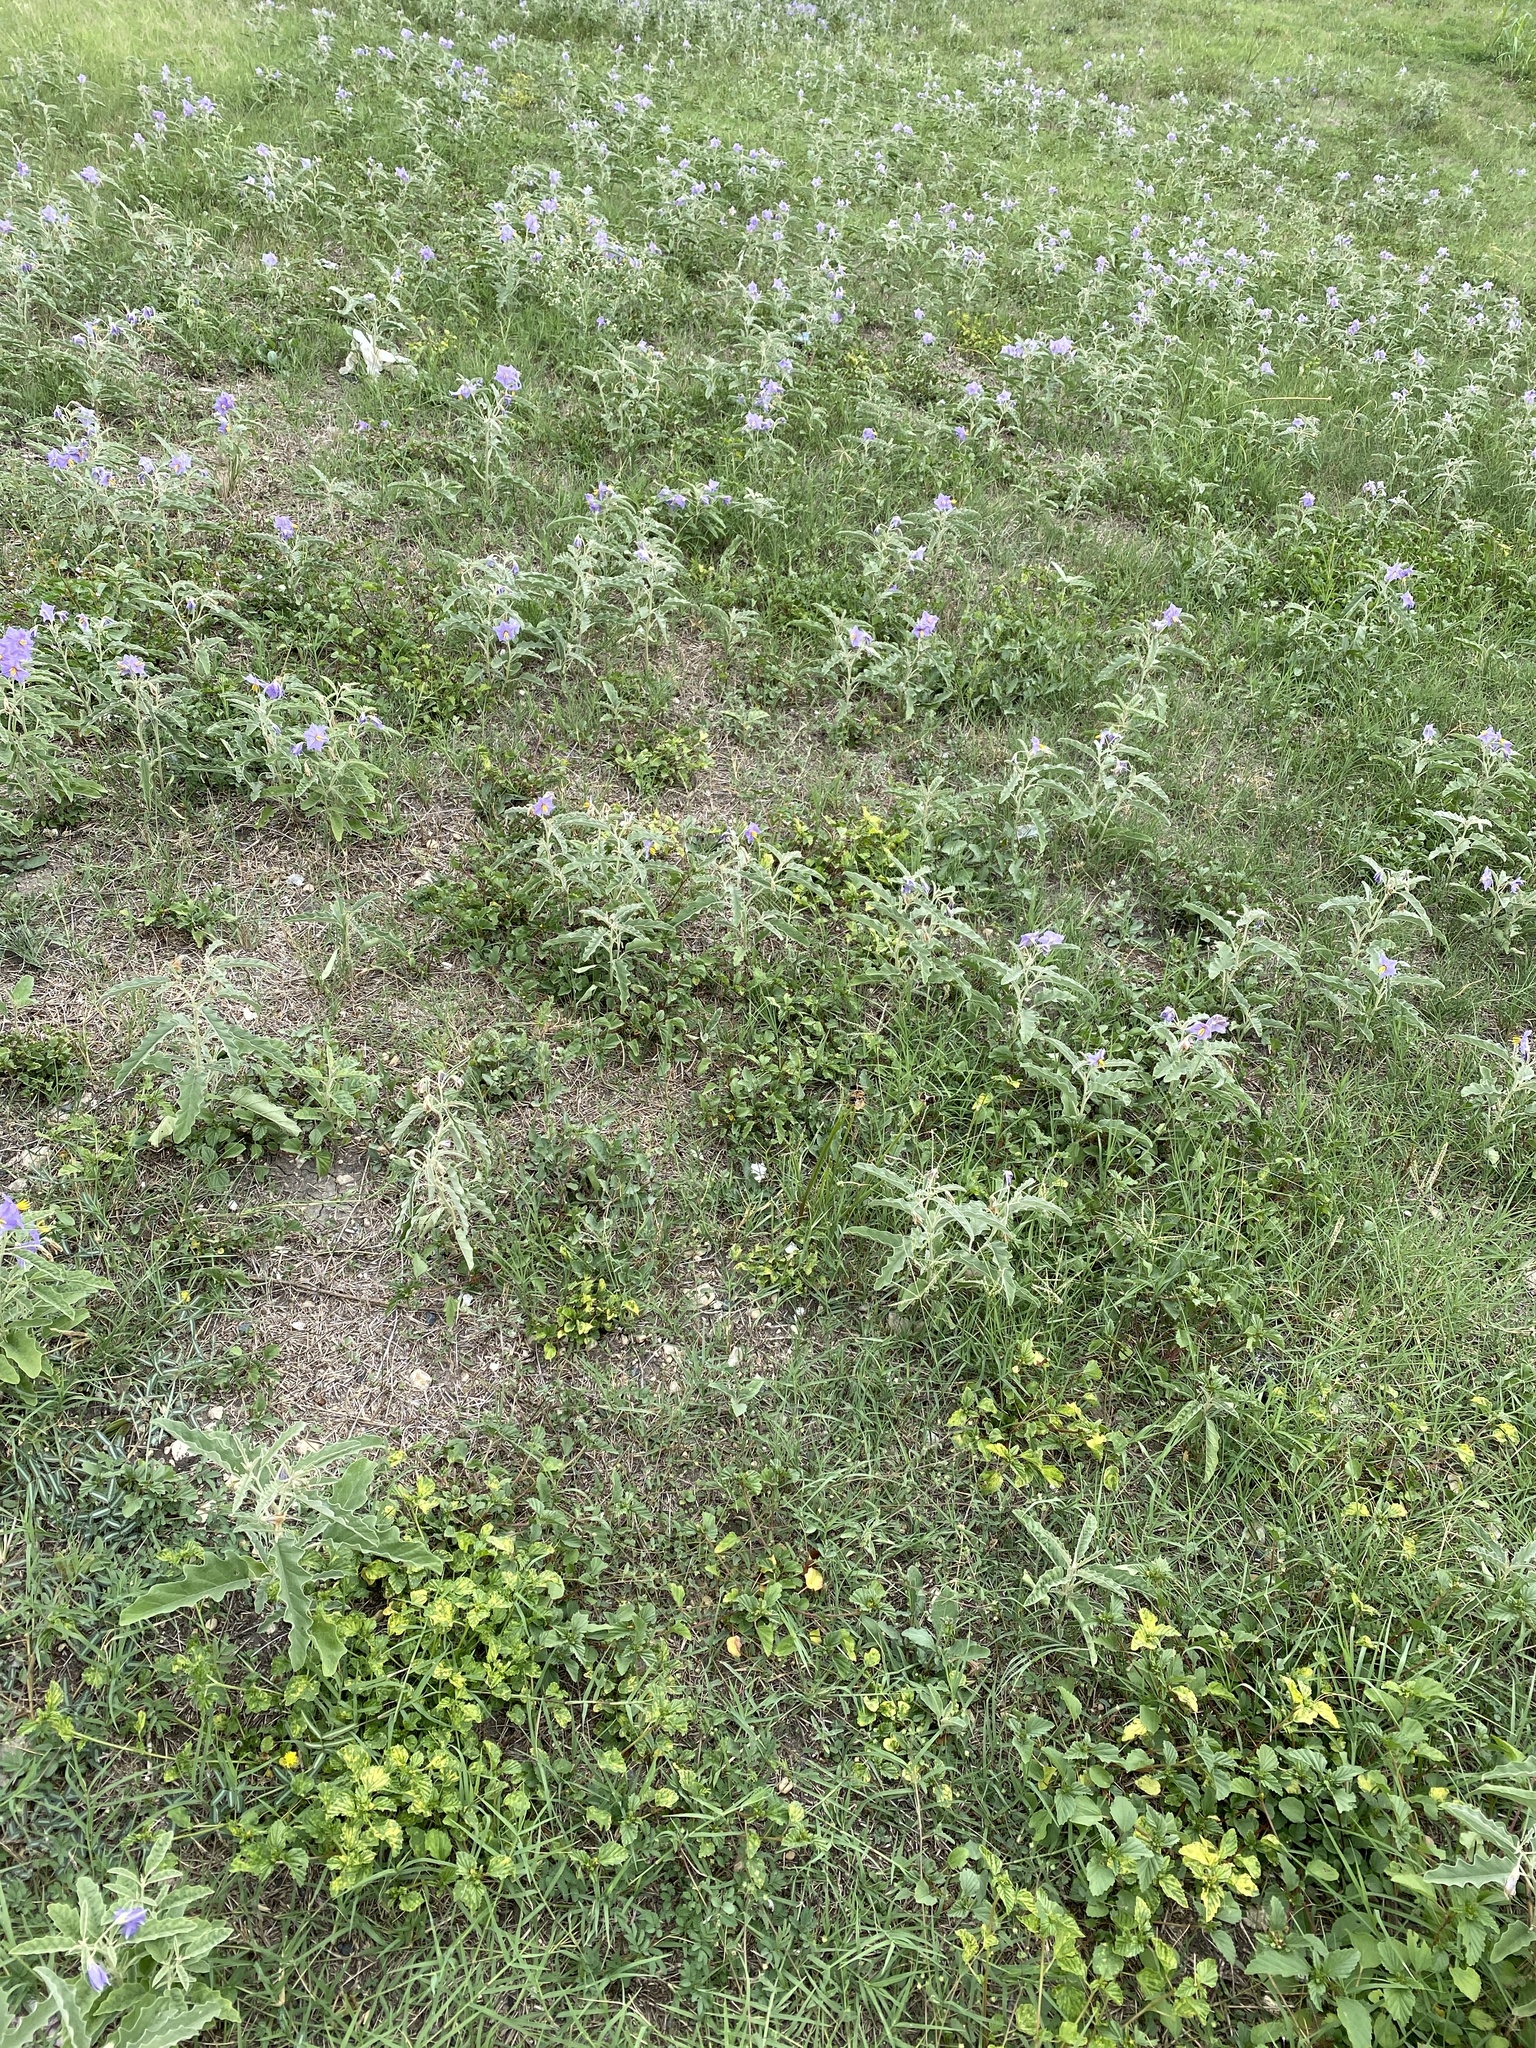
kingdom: Plantae
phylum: Tracheophyta
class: Magnoliopsida
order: Solanales
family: Solanaceae
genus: Solanum
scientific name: Solanum elaeagnifolium
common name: Silverleaf nightshade
